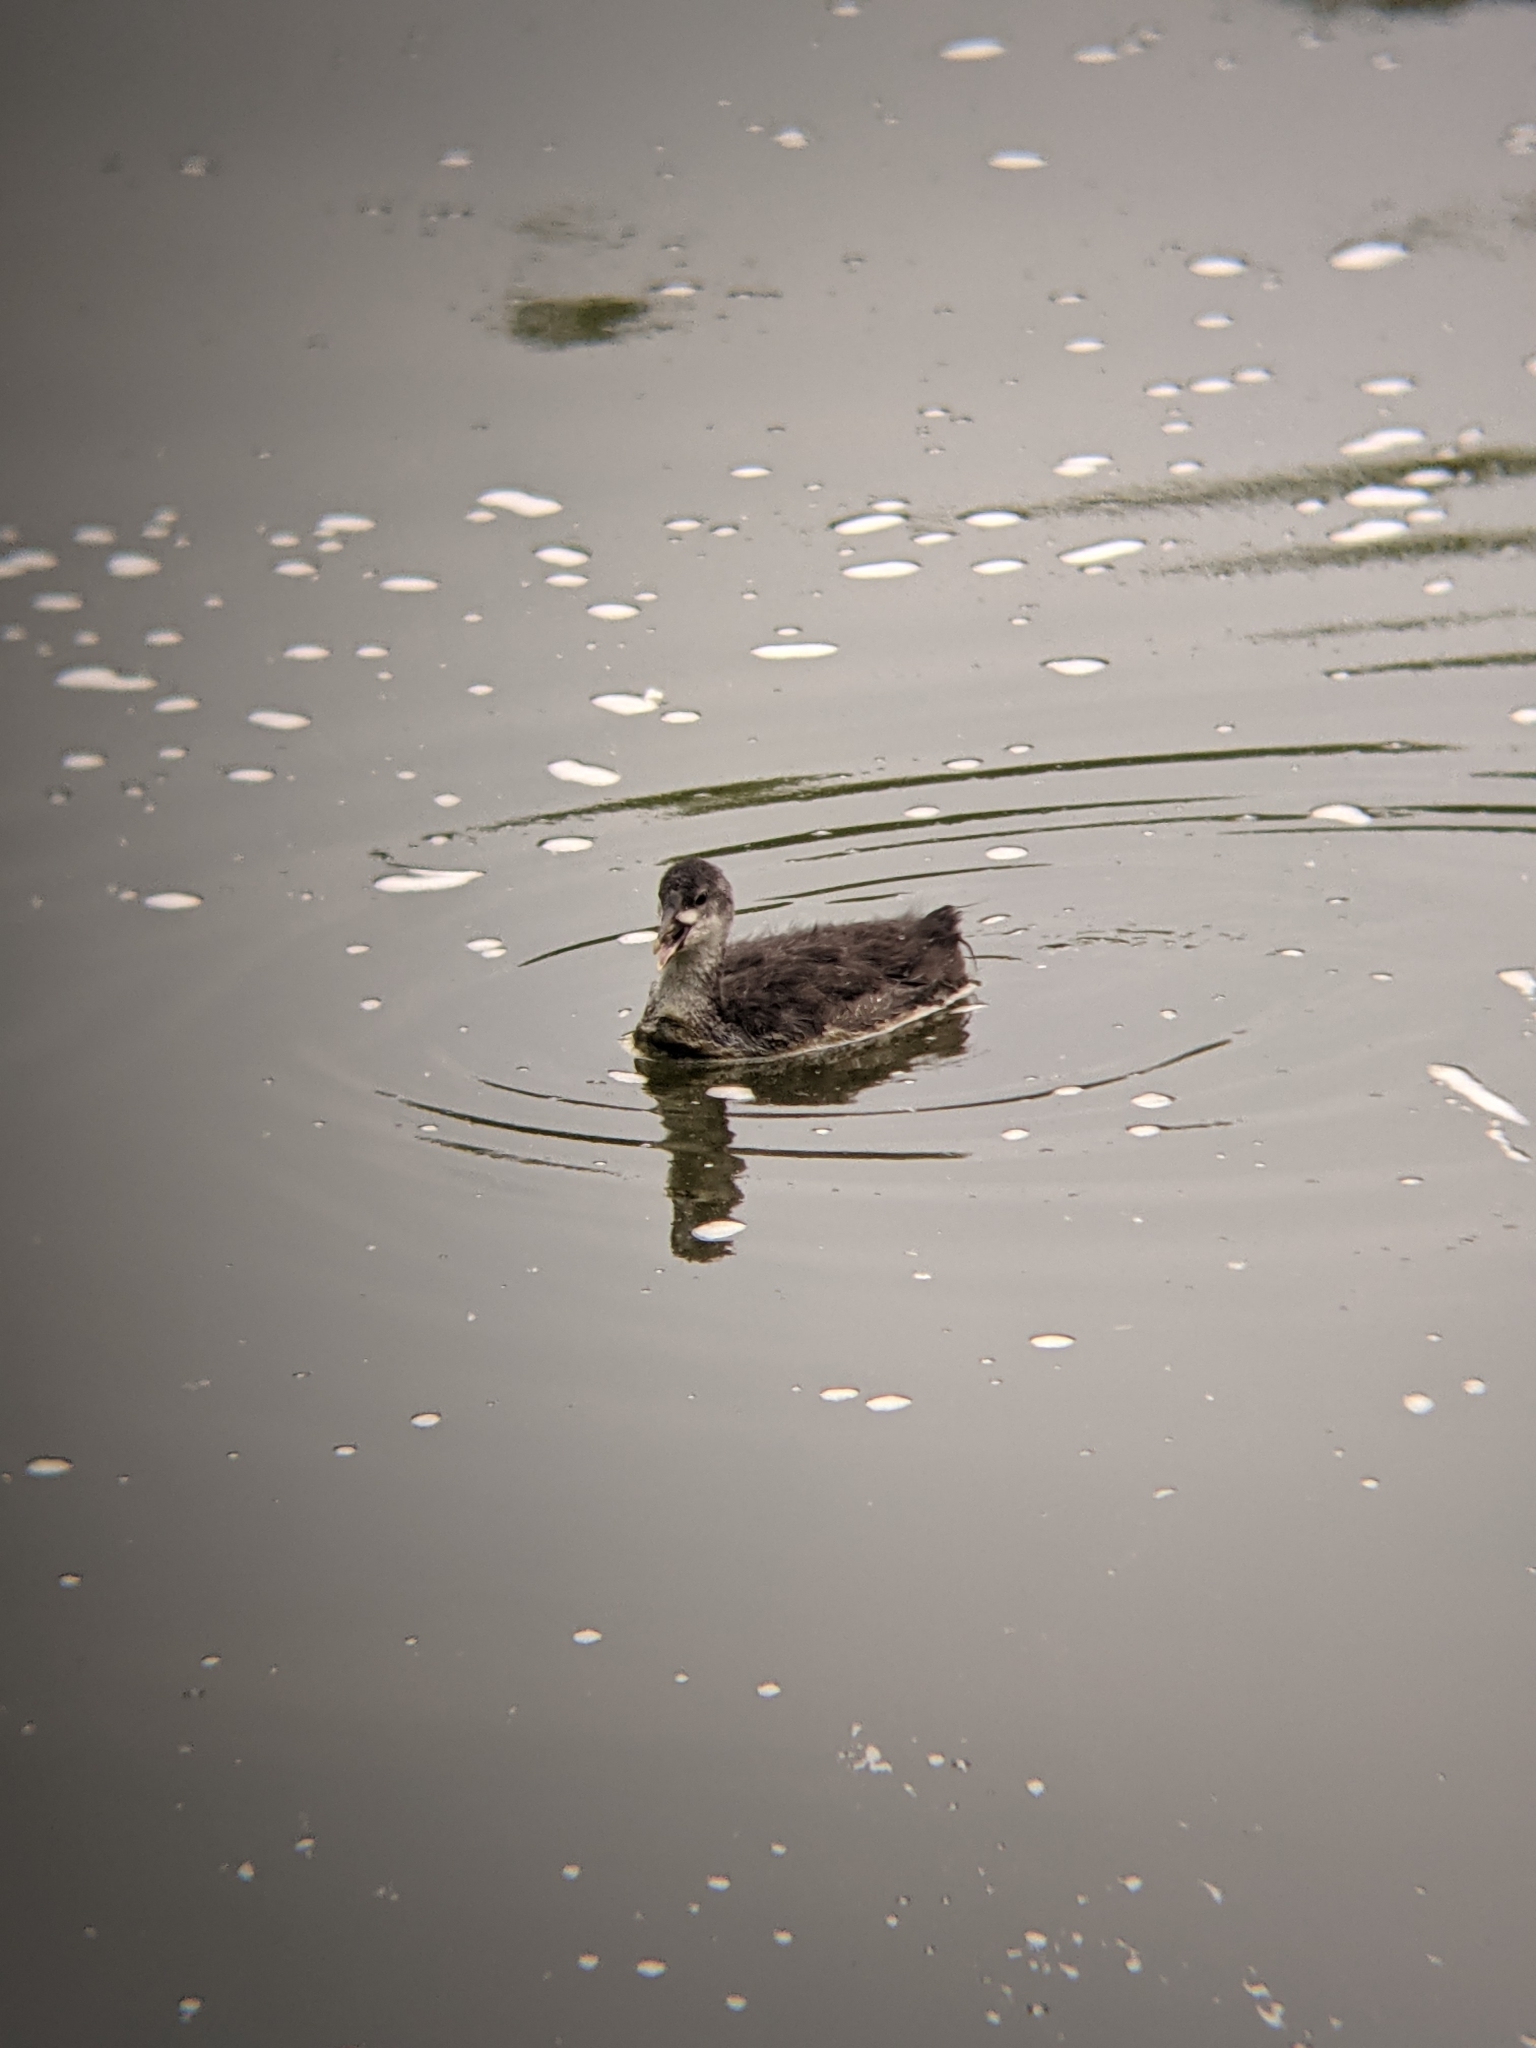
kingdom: Animalia
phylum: Chordata
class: Aves
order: Gruiformes
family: Rallidae
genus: Fulica
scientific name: Fulica atra
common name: Eurasian coot
